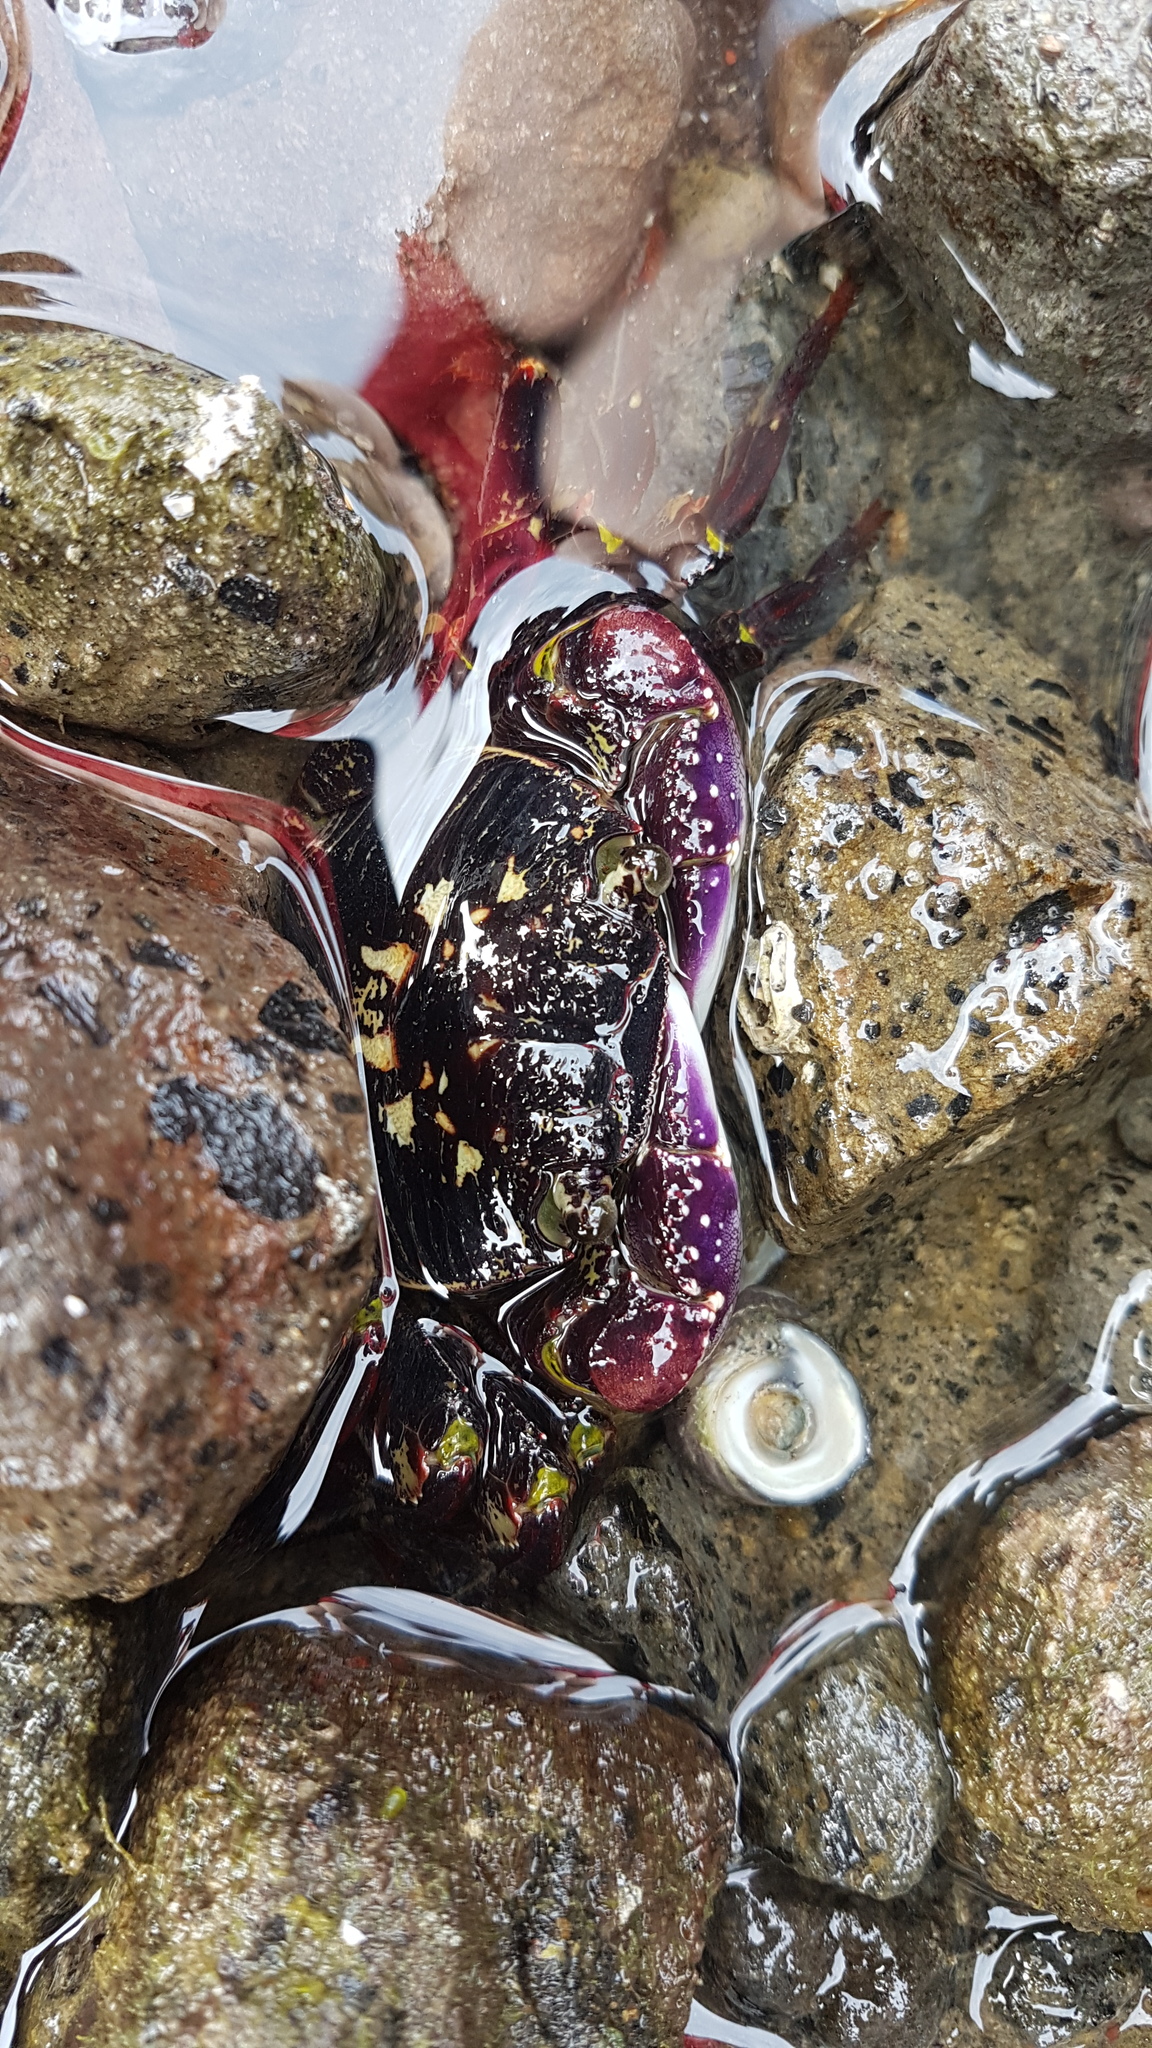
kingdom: Animalia
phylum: Arthropoda
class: Malacostraca
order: Decapoda
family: Grapsidae
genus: Leptograpsus
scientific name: Leptograpsus variegatus
